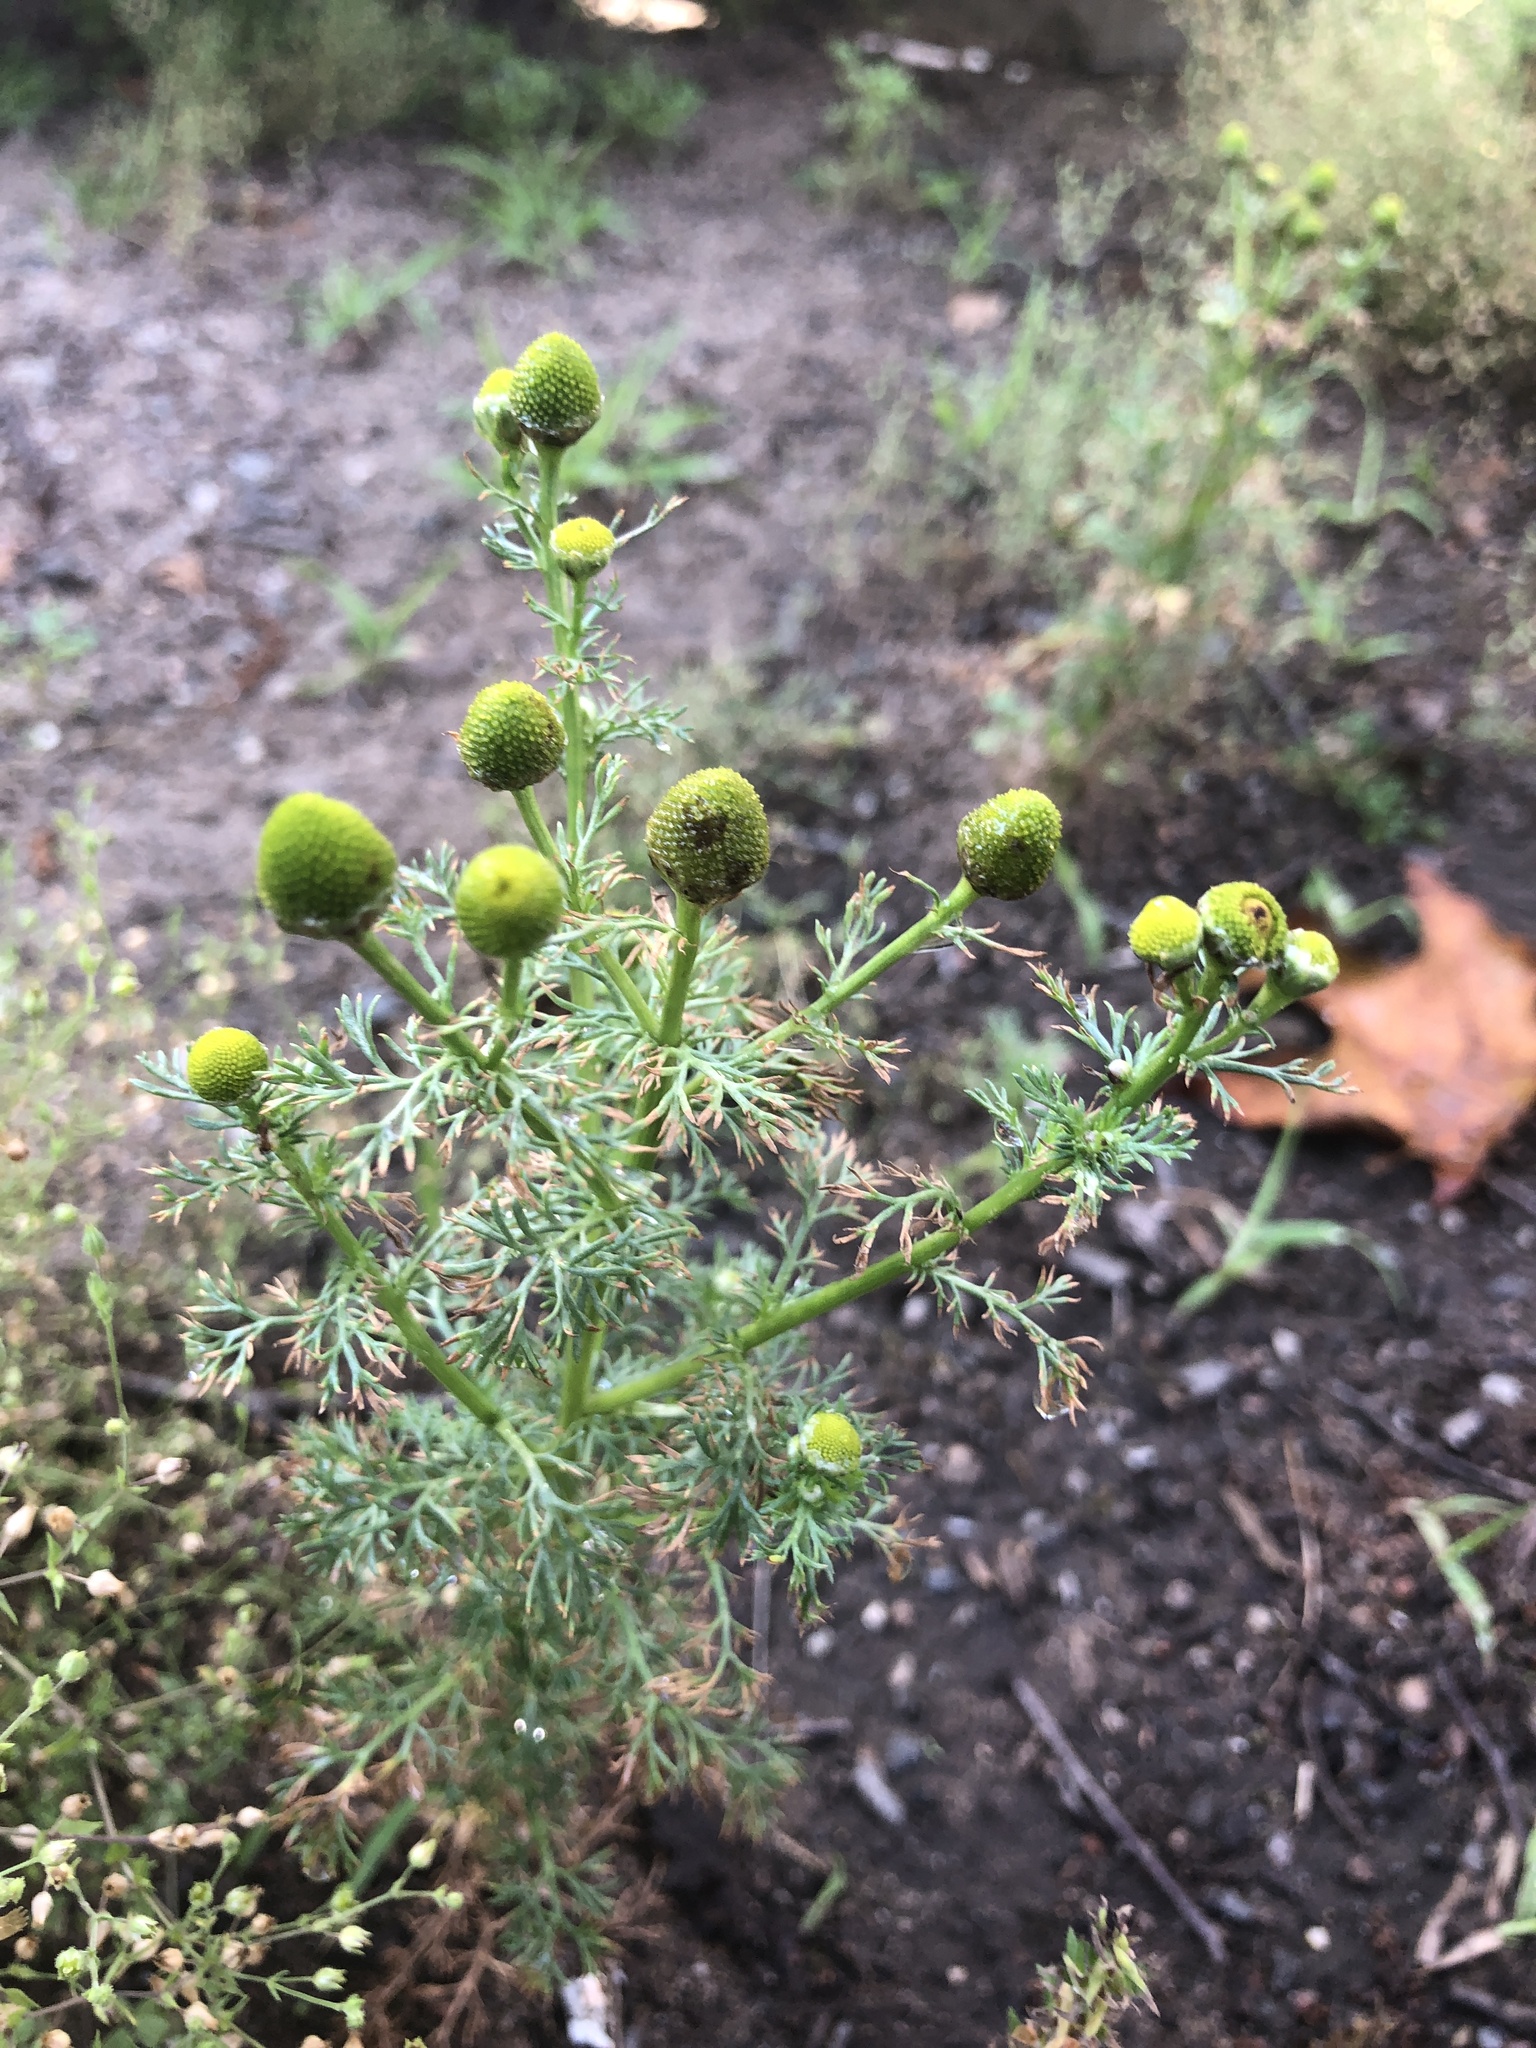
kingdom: Plantae
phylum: Tracheophyta
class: Magnoliopsida
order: Asterales
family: Asteraceae
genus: Matricaria
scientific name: Matricaria discoidea
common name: Disc mayweed
